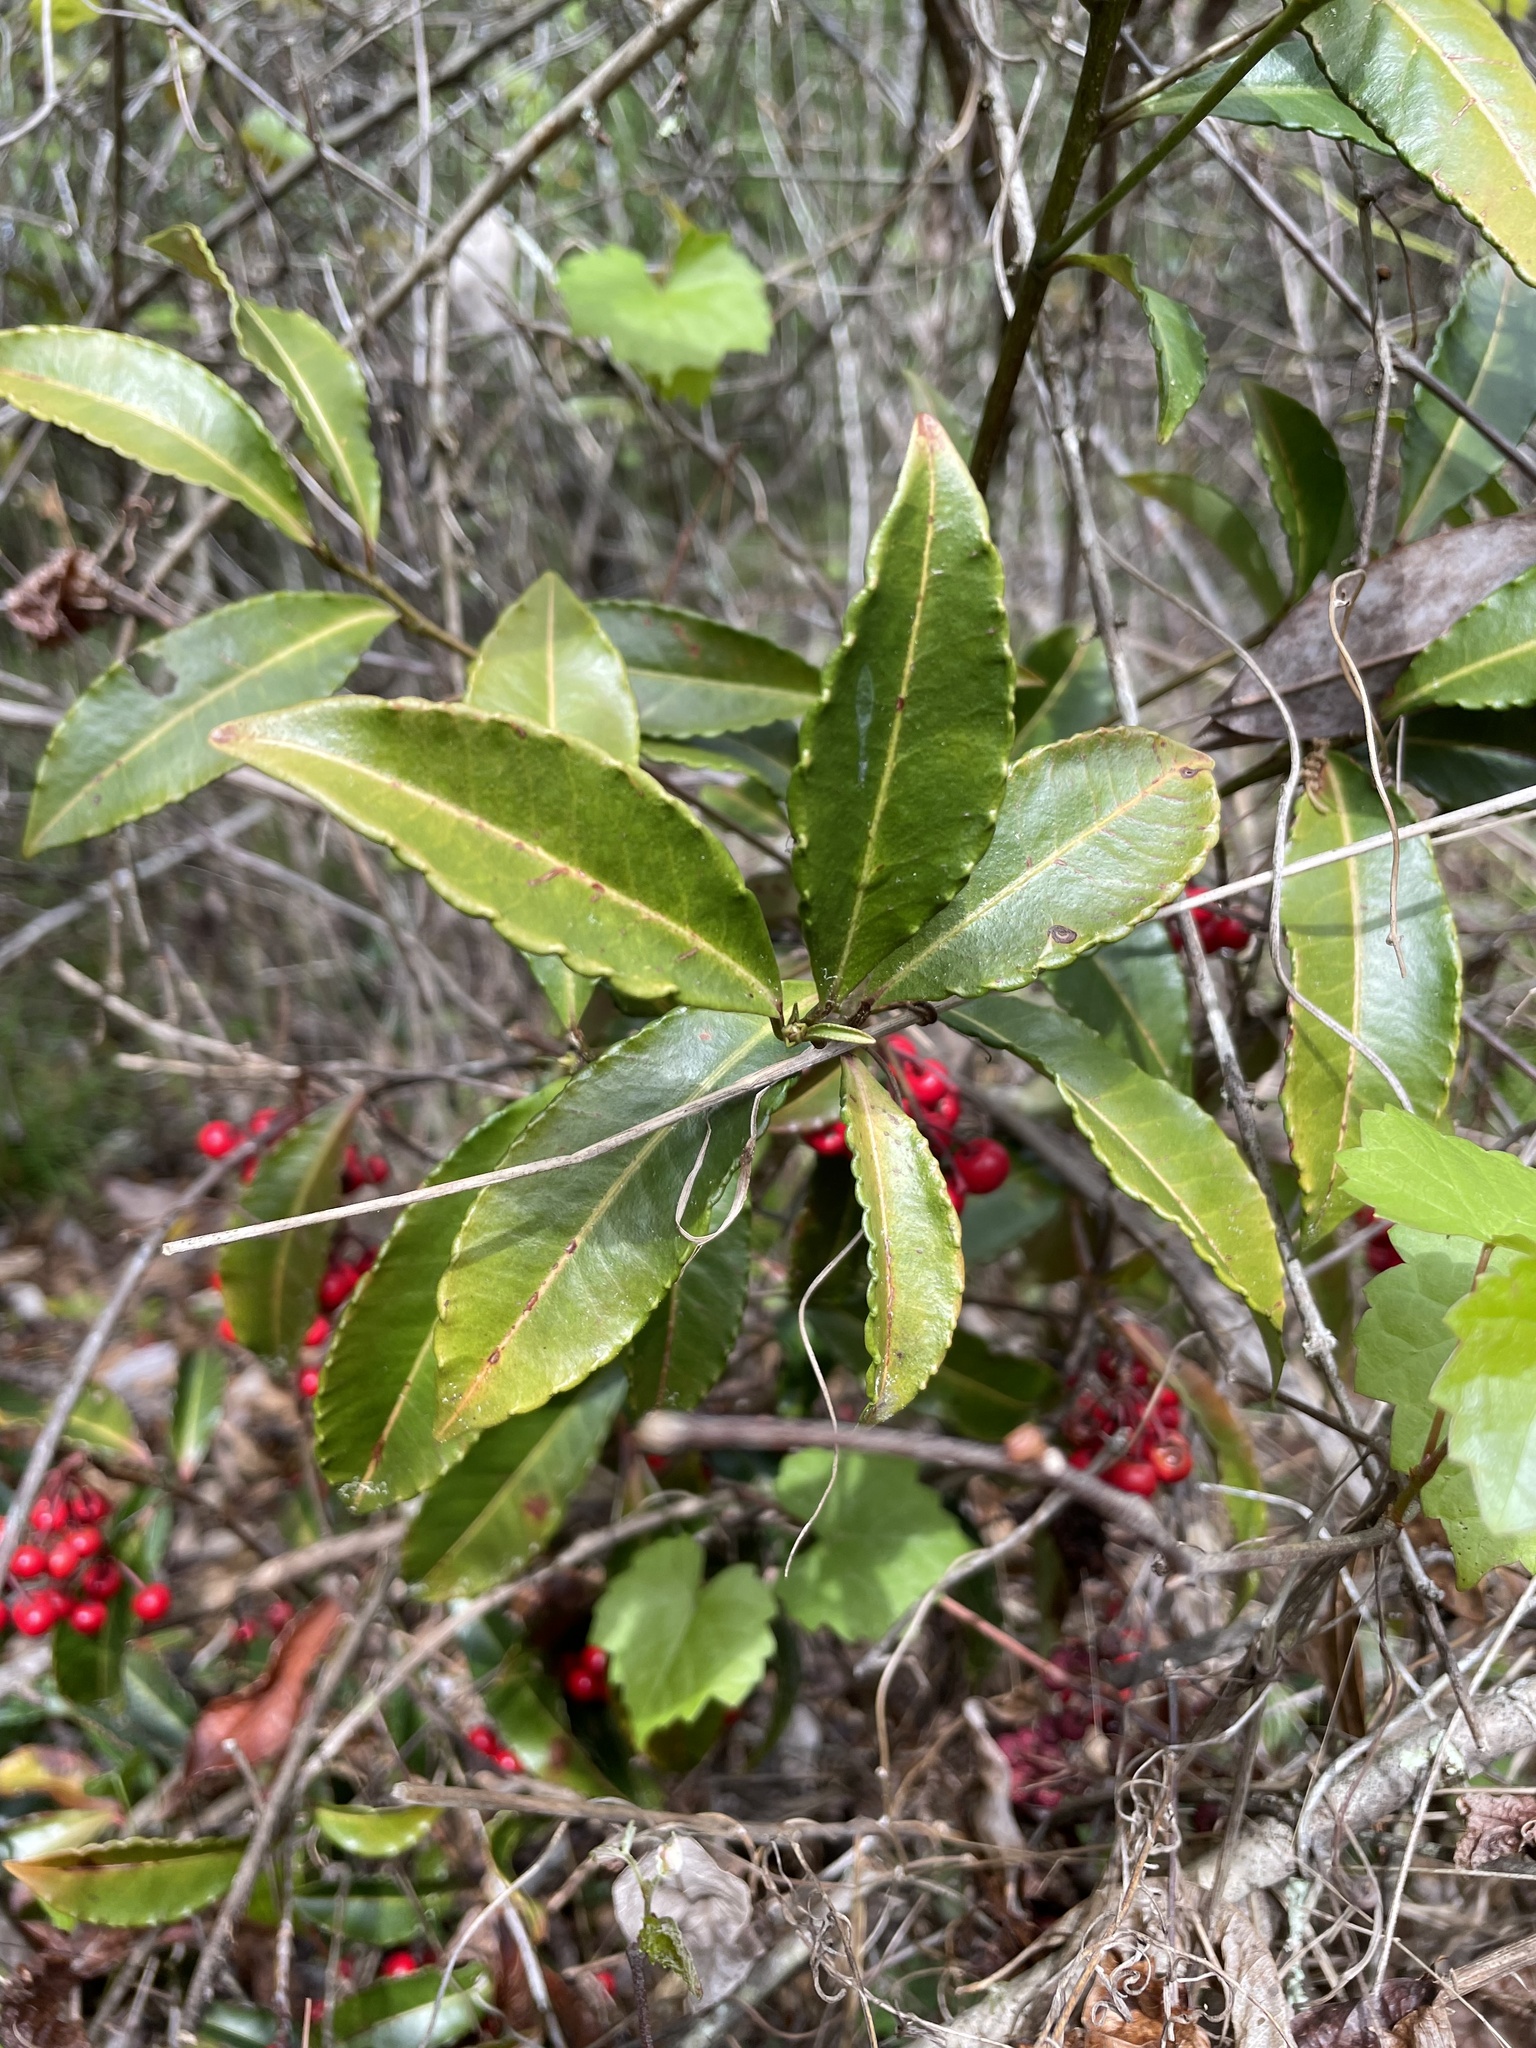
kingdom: Plantae
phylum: Tracheophyta
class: Magnoliopsida
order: Ericales
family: Primulaceae
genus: Ardisia
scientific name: Ardisia crenata
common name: Hen's eyes
